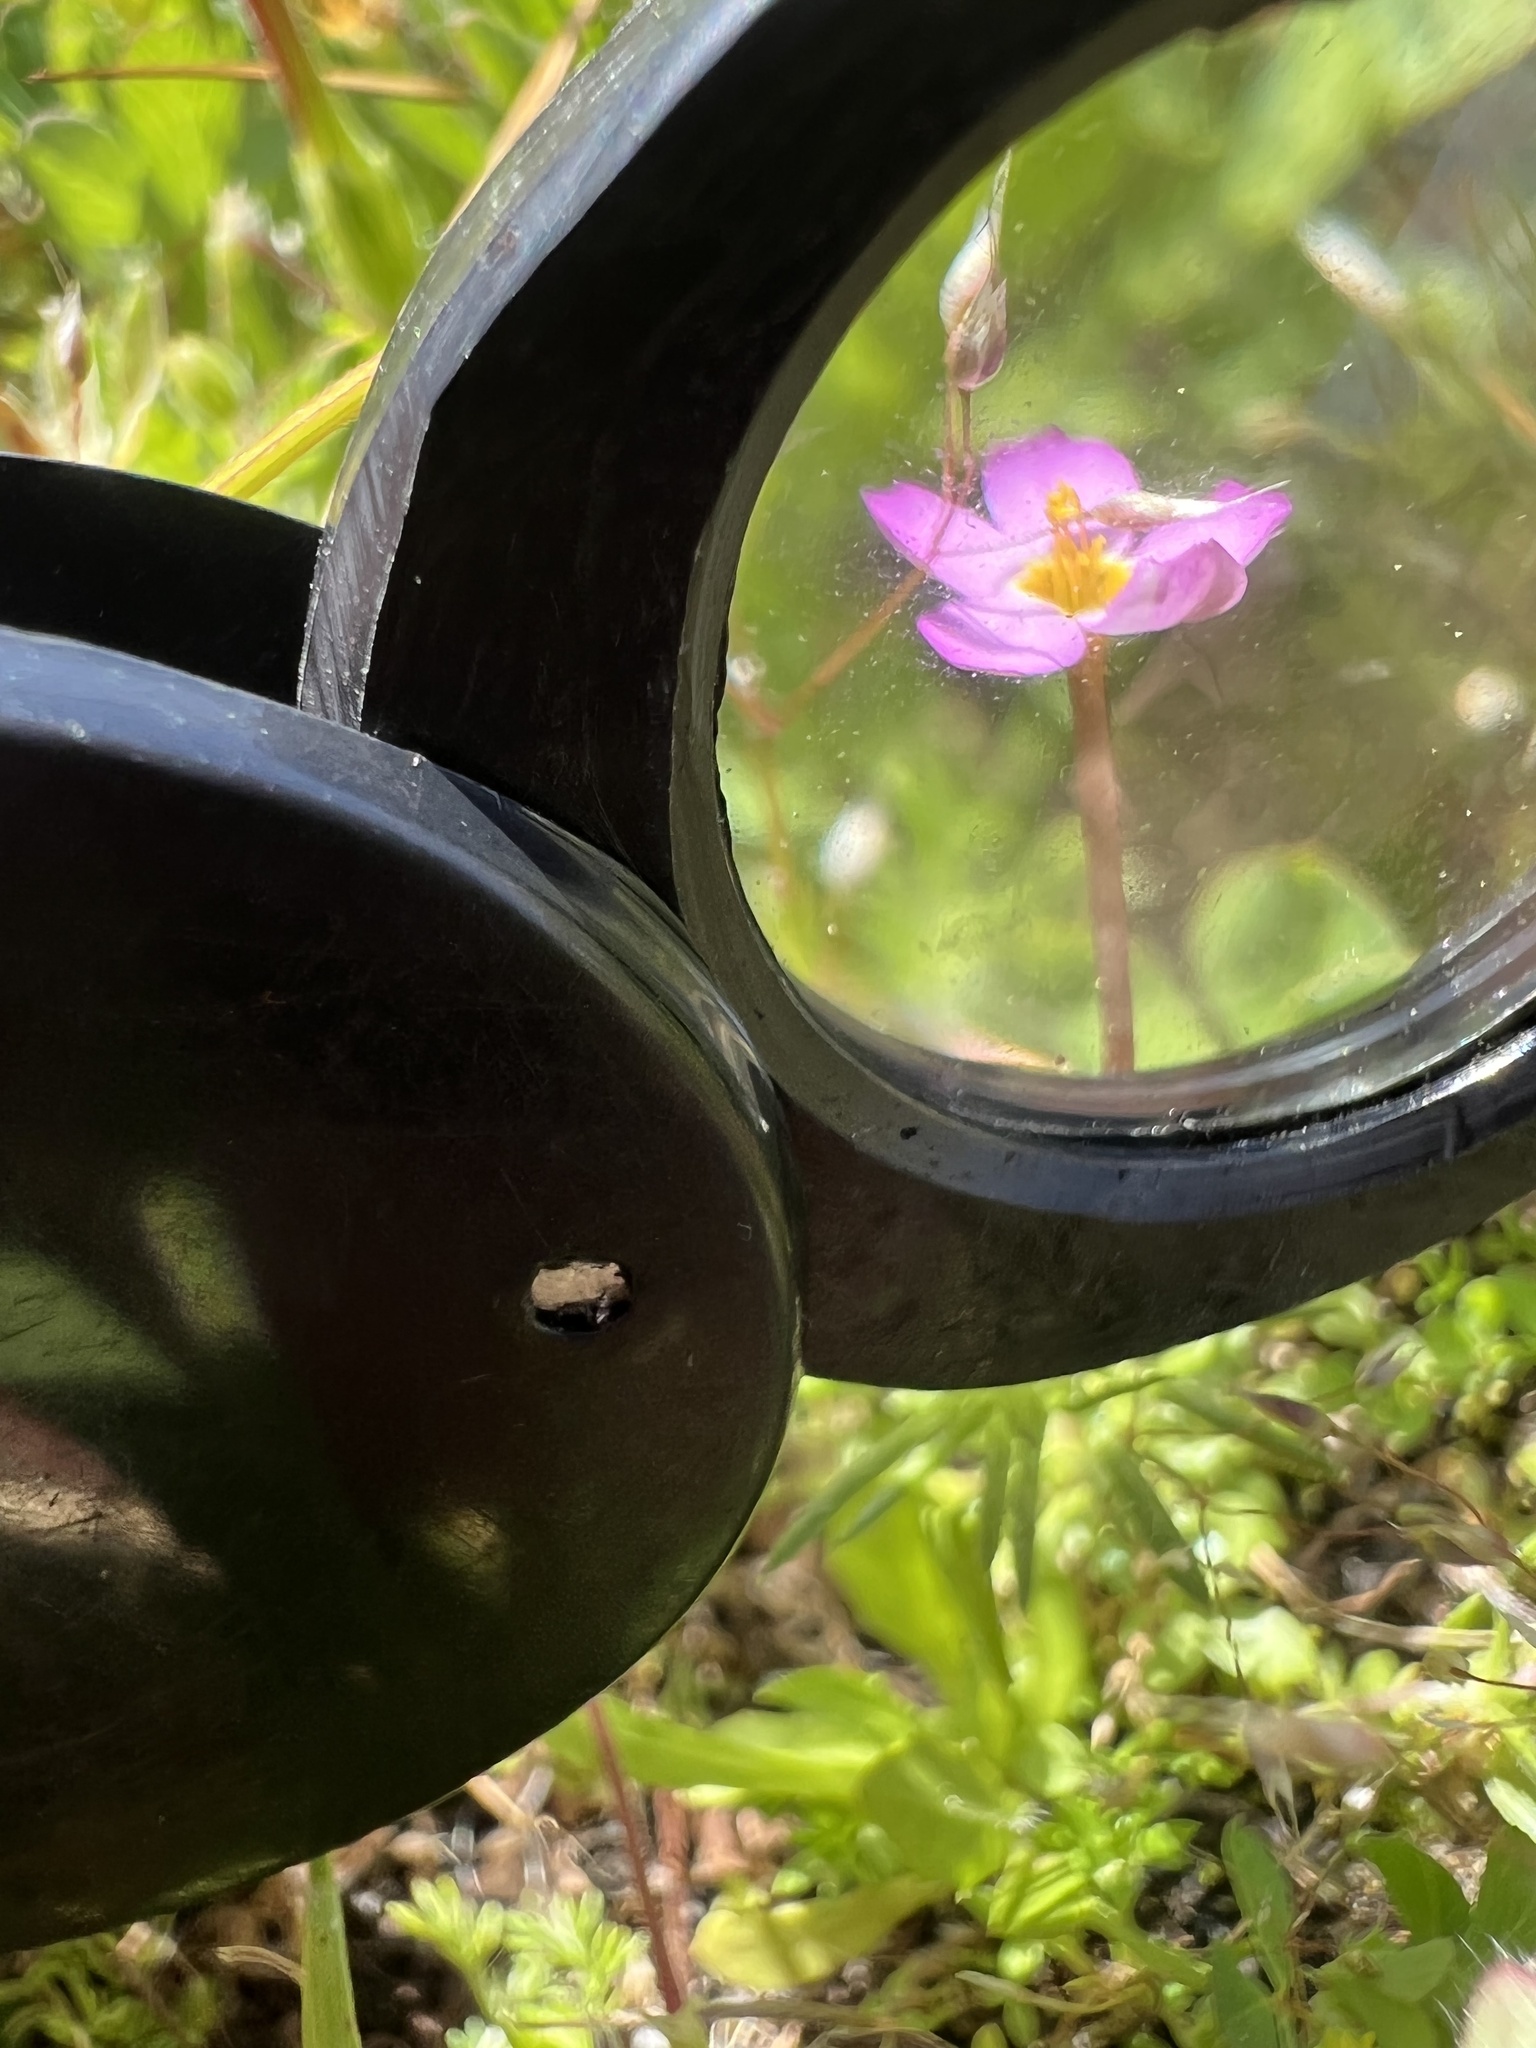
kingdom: Plantae
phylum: Tracheophyta
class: Magnoliopsida
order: Ericales
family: Polemoniaceae
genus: Leptosiphon
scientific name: Leptosiphon bicolor
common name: True babystars
